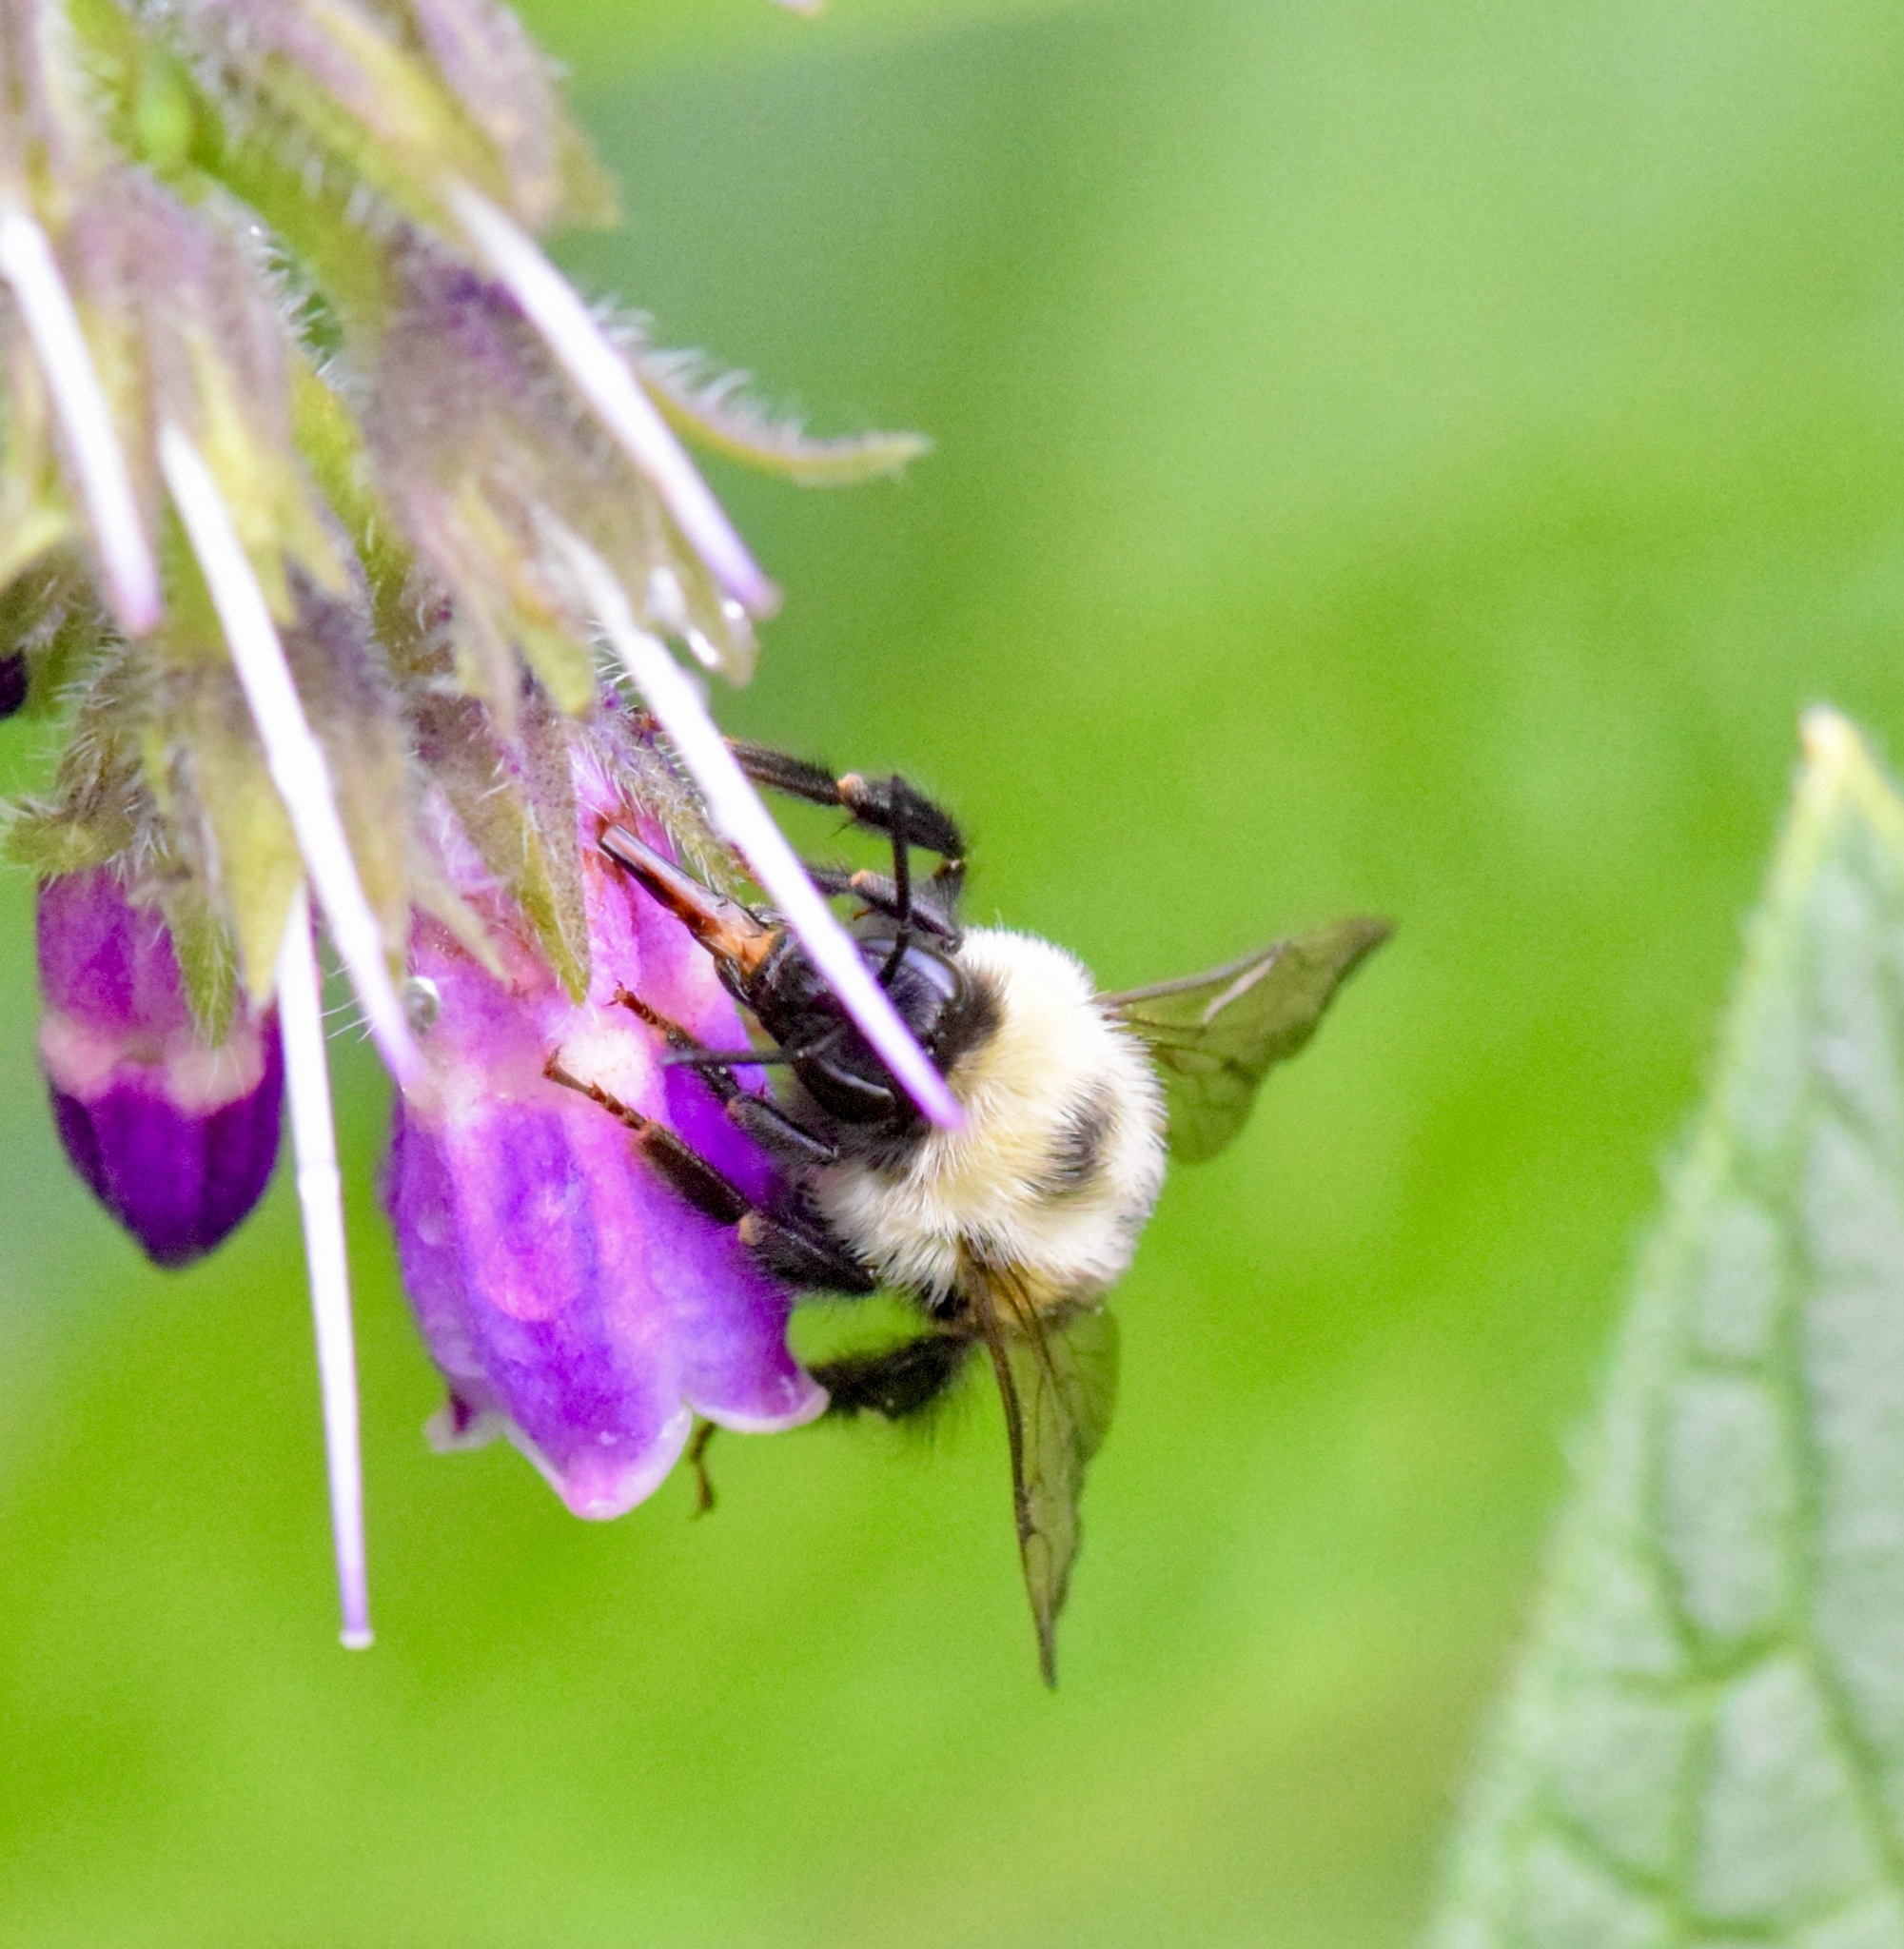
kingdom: Animalia
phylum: Arthropoda
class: Insecta
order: Hymenoptera
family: Apidae
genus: Bombus
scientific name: Bombus bimaculatus
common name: Two-spotted bumble bee
